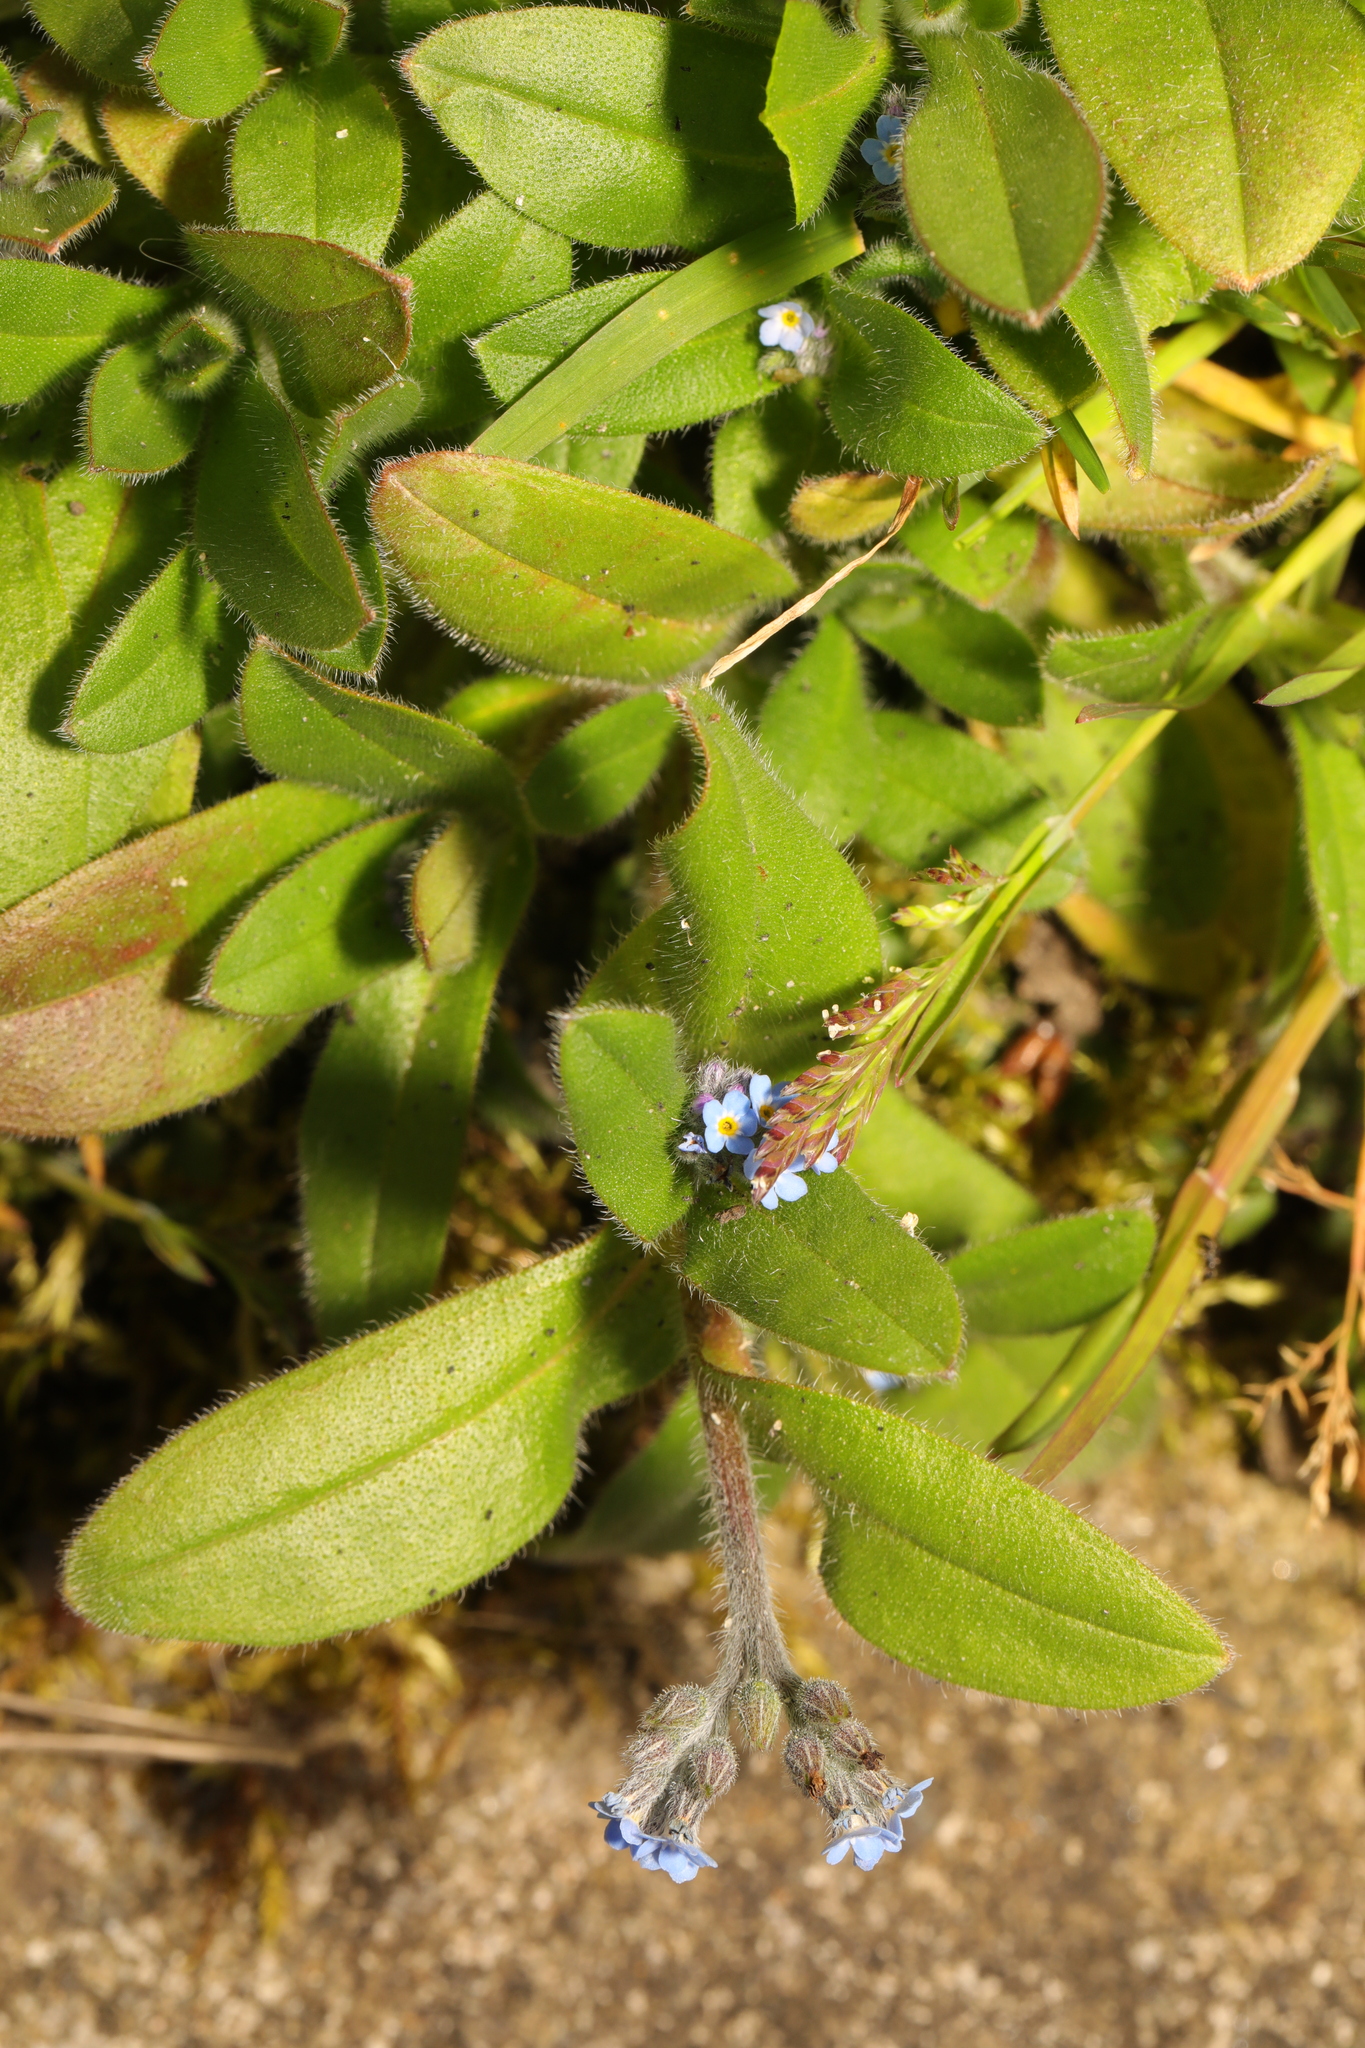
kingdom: Plantae
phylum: Tracheophyta
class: Magnoliopsida
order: Boraginales
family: Boraginaceae
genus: Myosotis
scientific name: Myosotis arvensis
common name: Field forget-me-not
